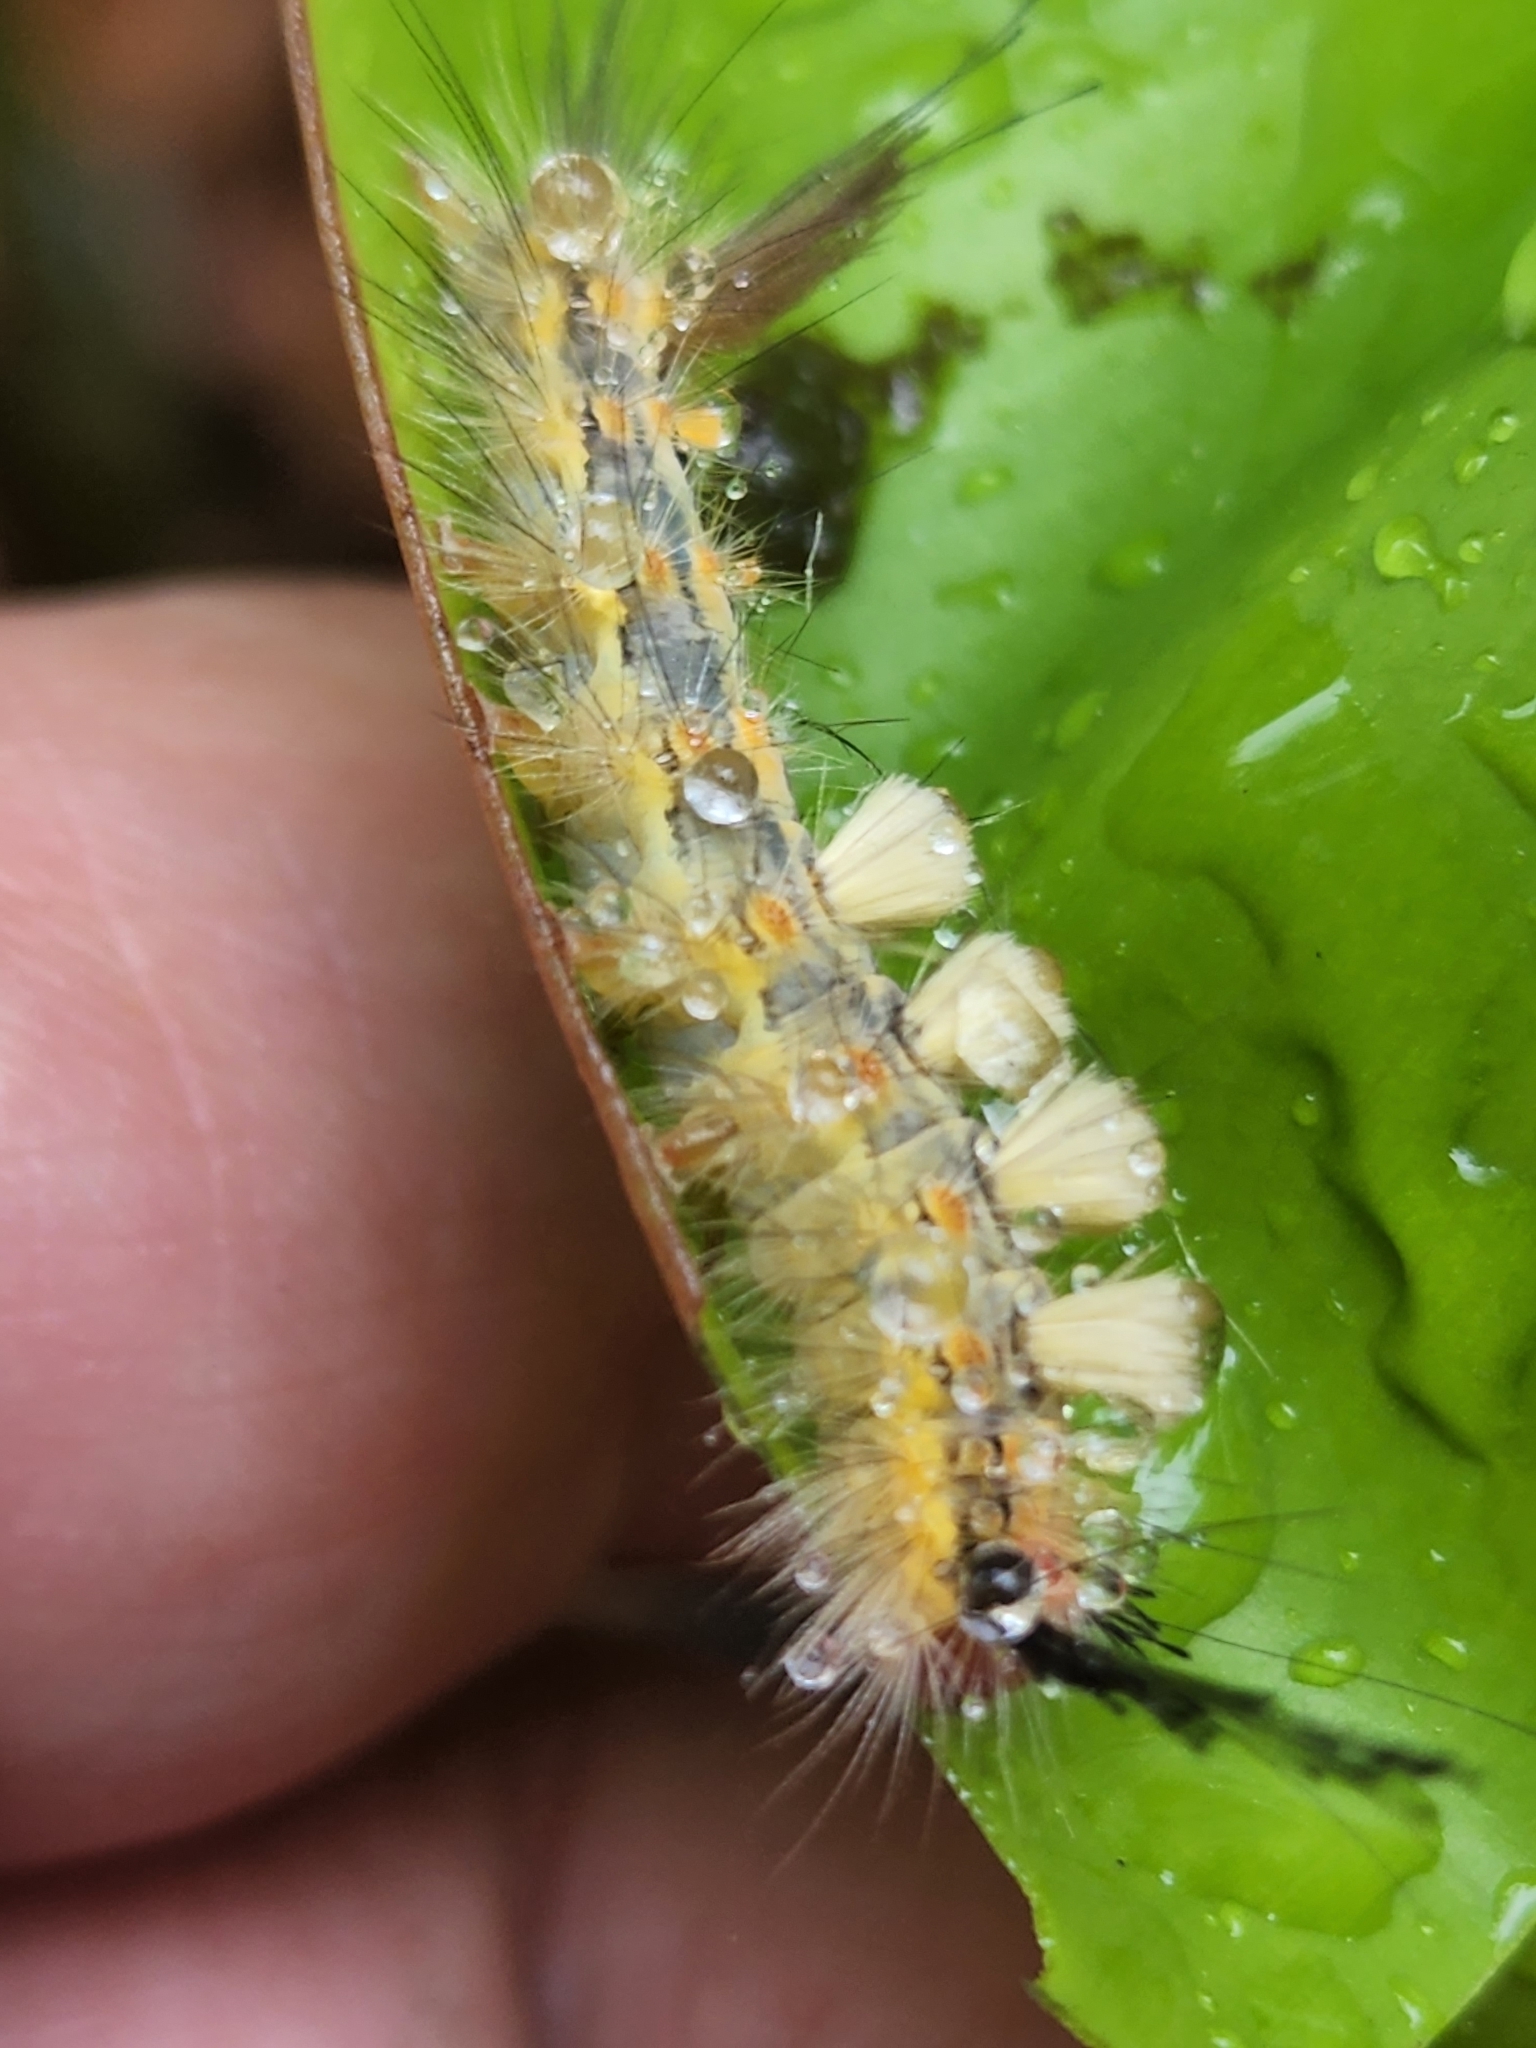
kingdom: Animalia
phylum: Arthropoda
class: Insecta
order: Lepidoptera
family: Erebidae
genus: Orgyia
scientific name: Orgyia detrita
